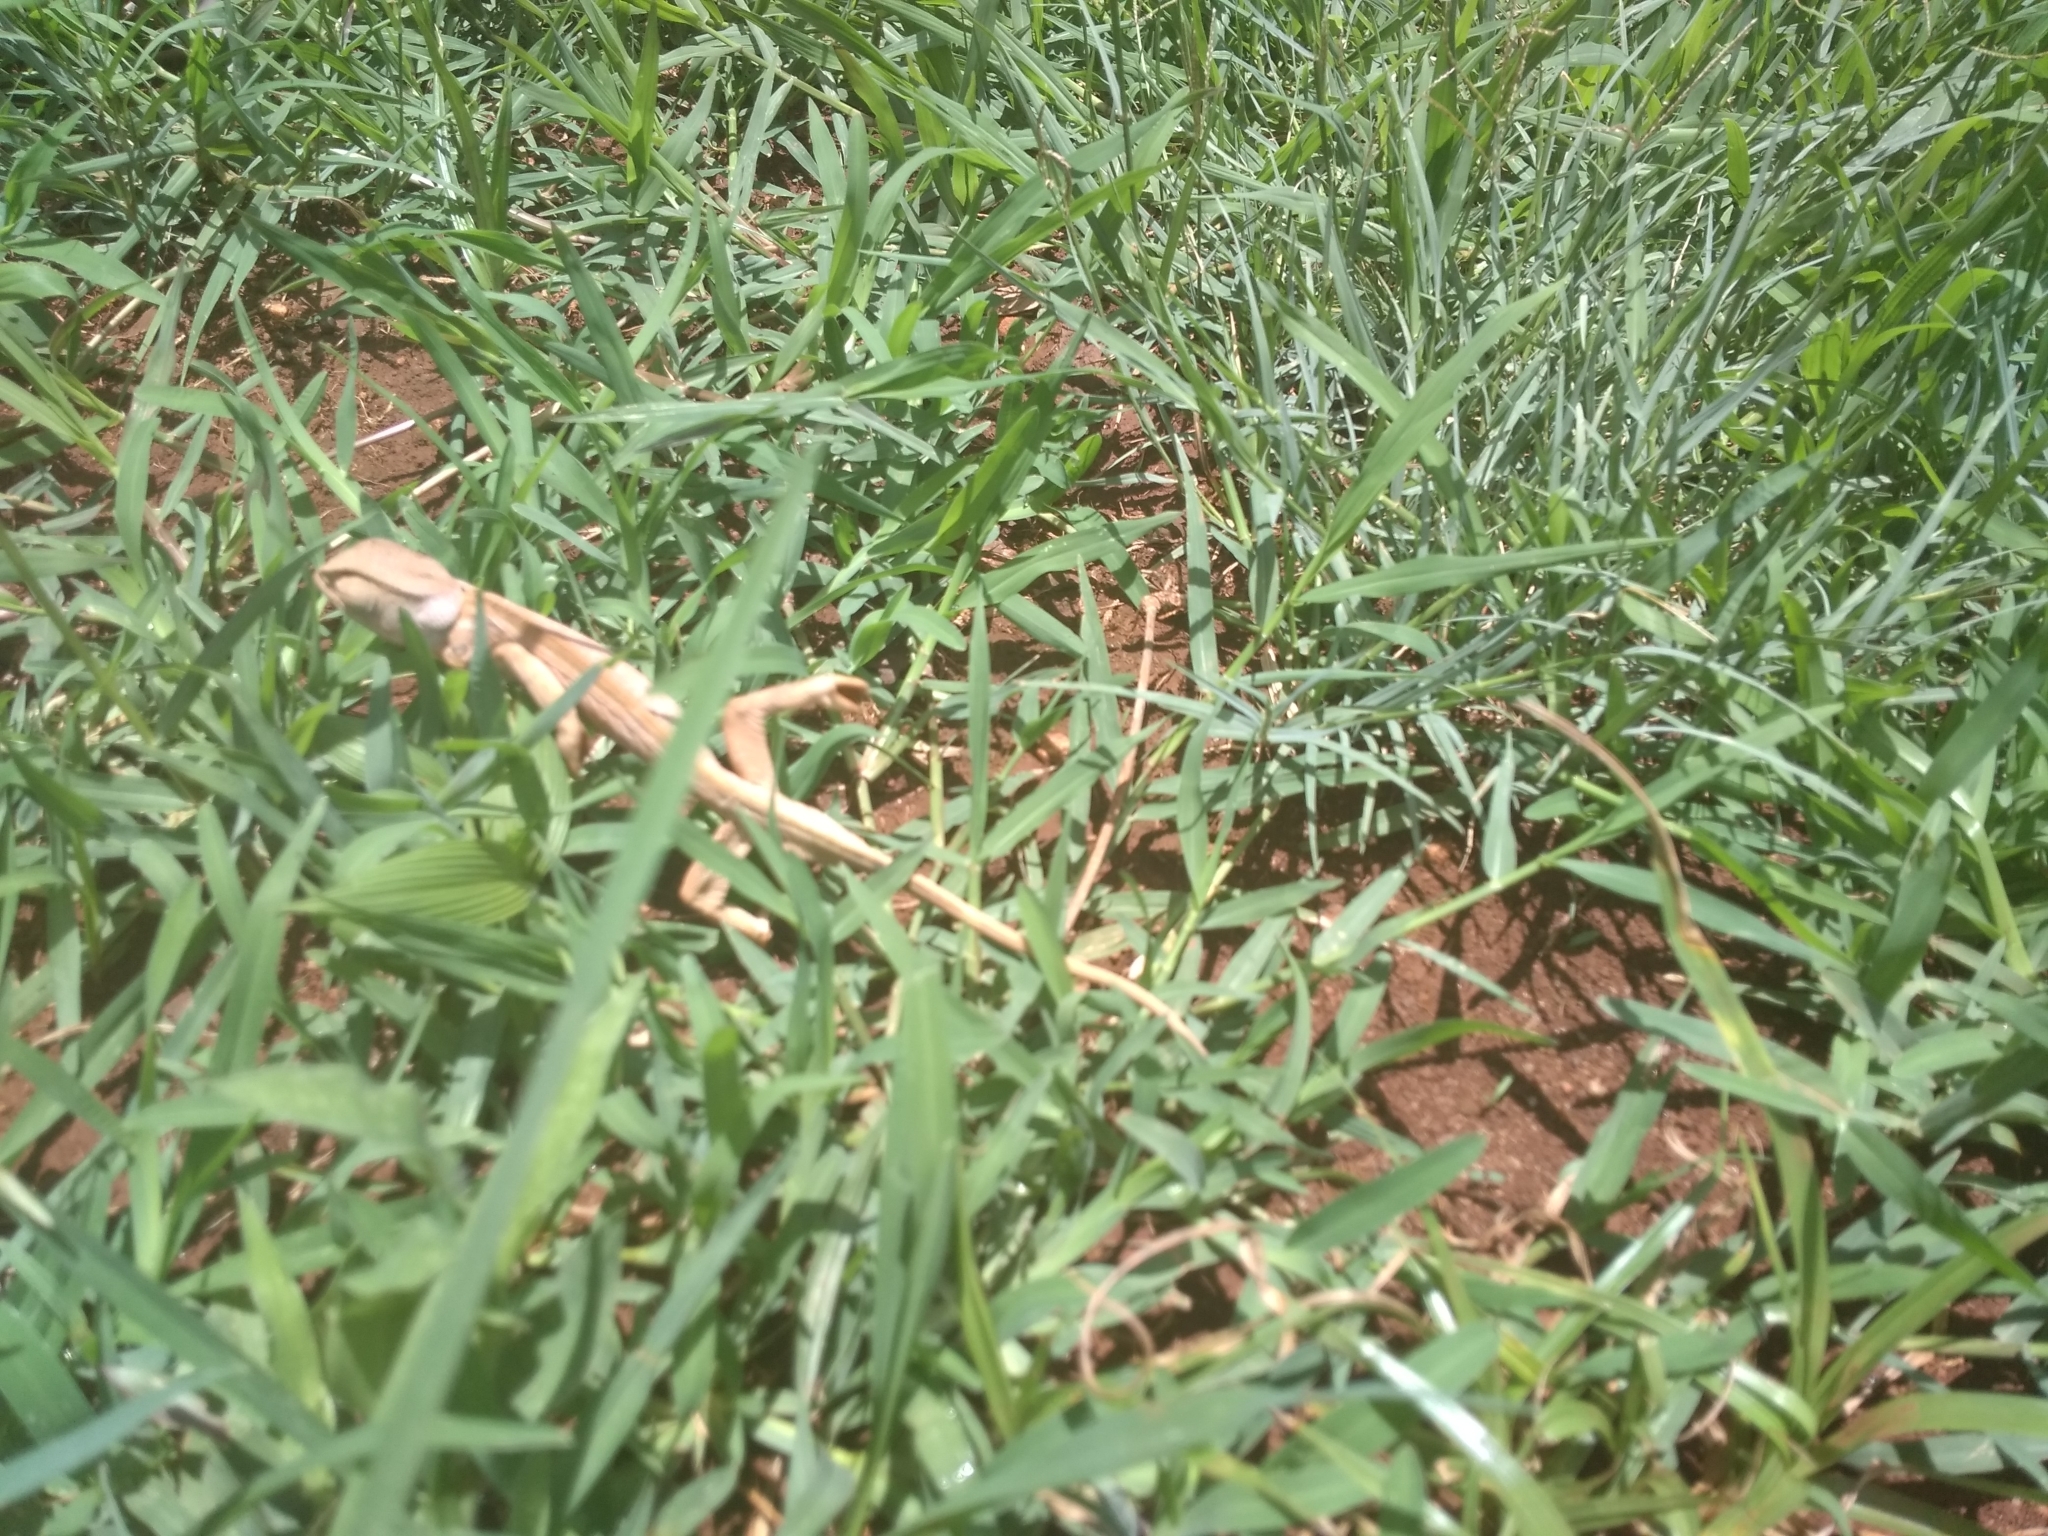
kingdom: Animalia
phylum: Chordata
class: Squamata
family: Chamaeleonidae
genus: Chamaeleo
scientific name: Chamaeleo dilepis
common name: Flapneck chameleon
